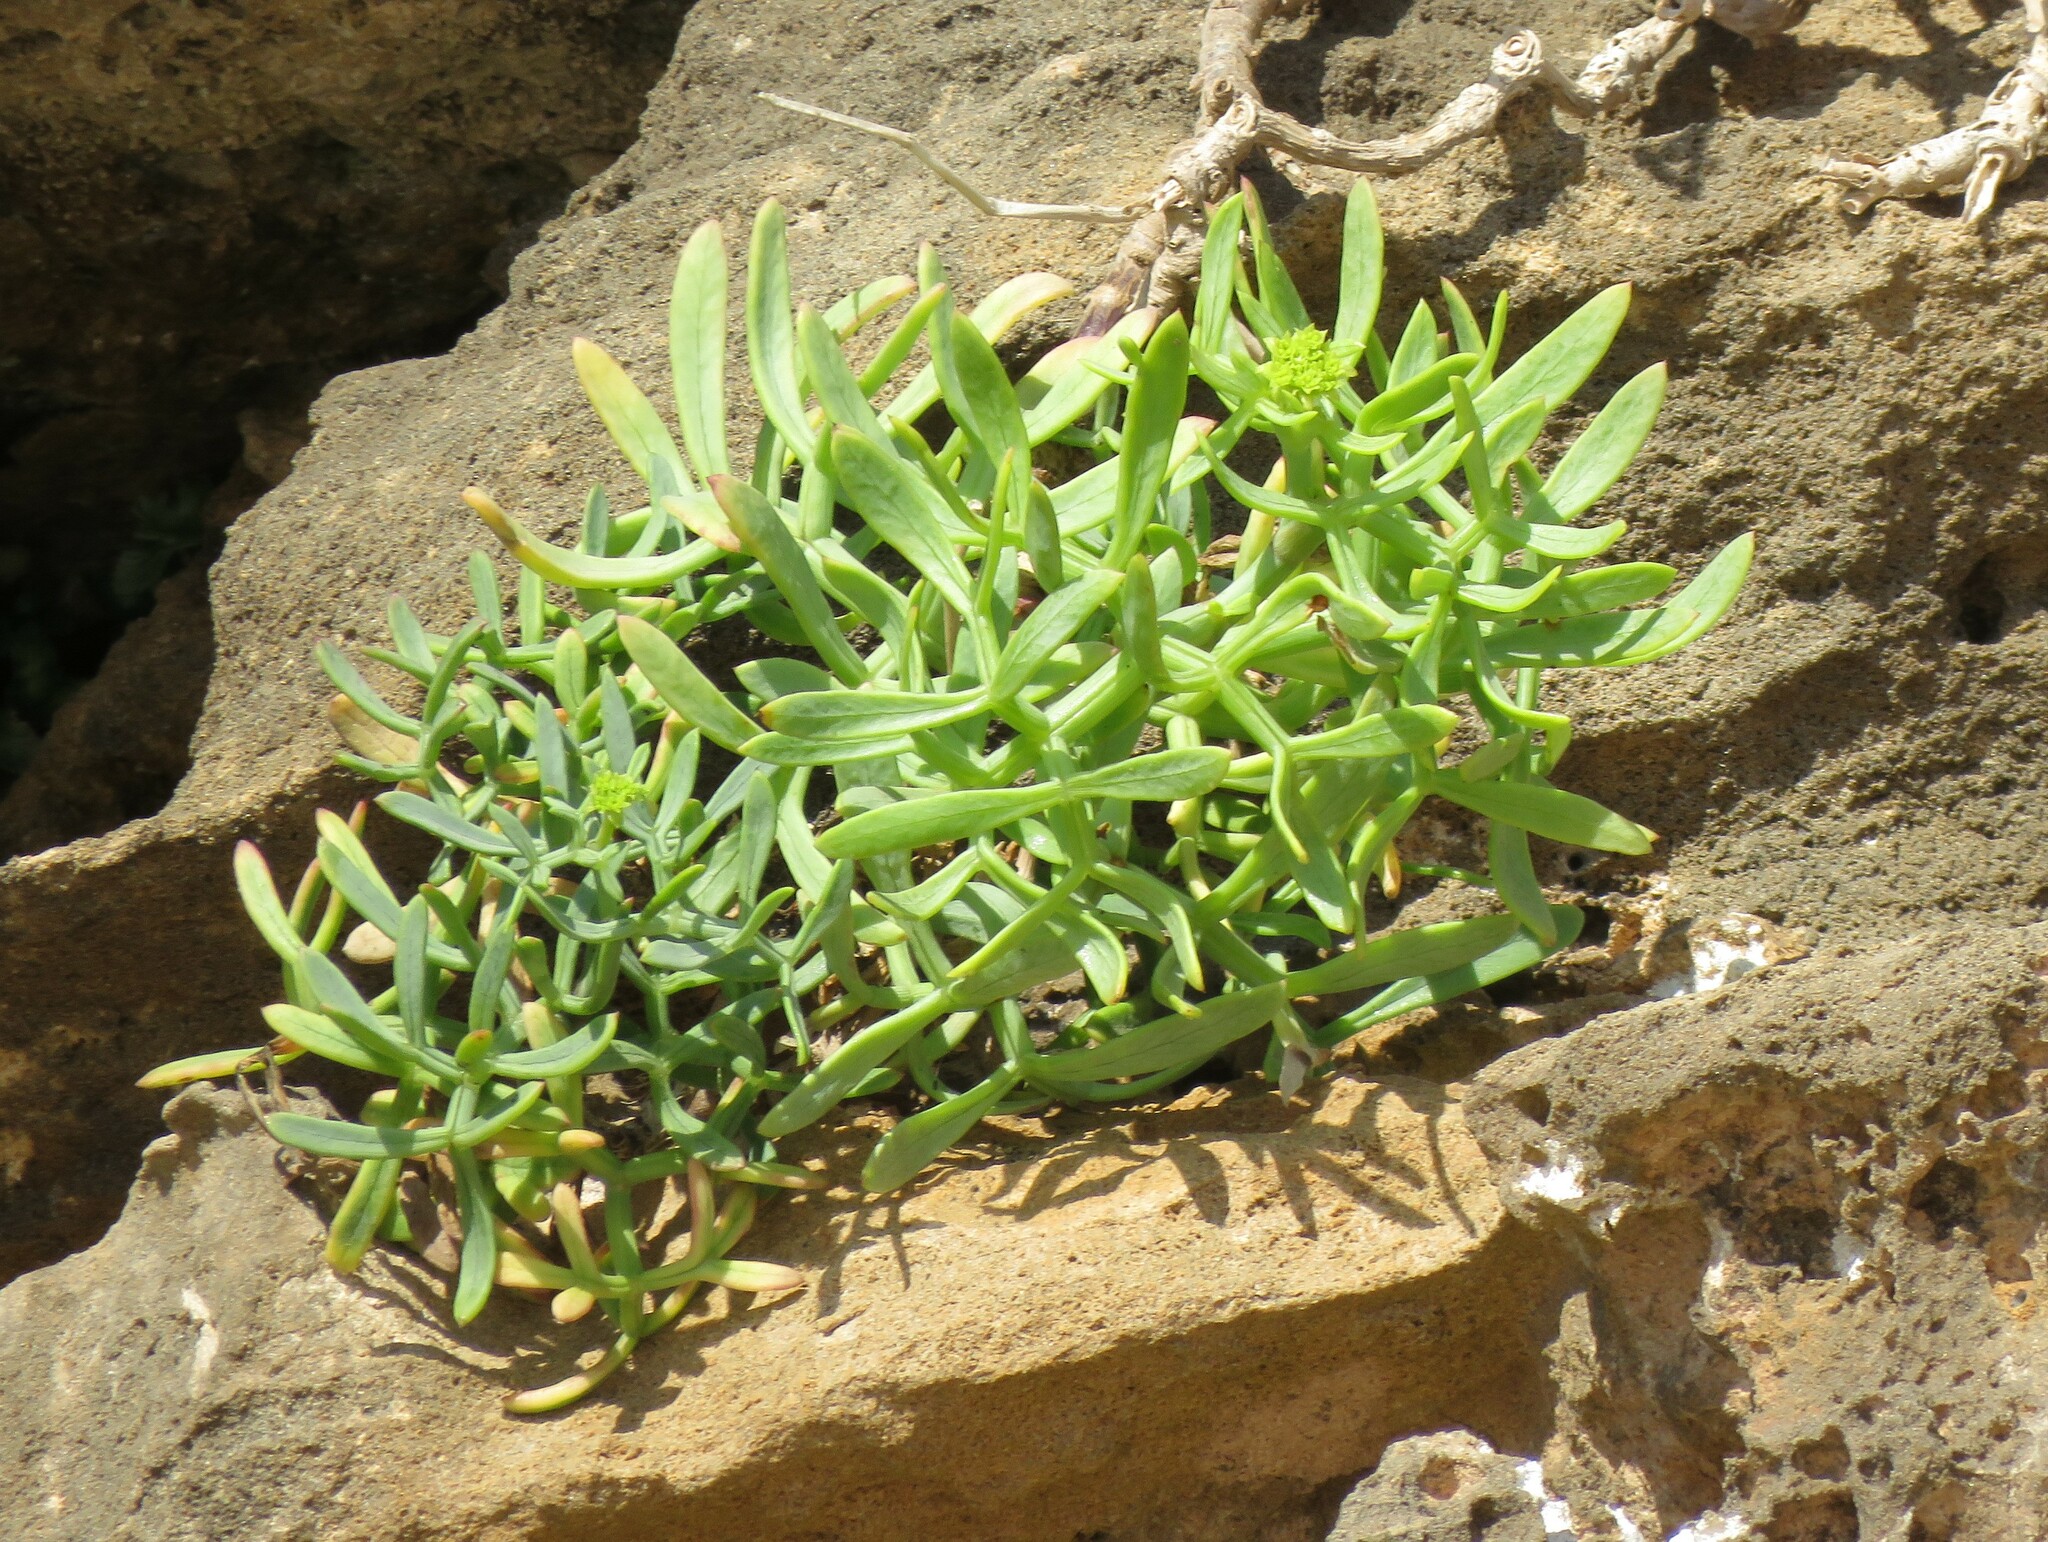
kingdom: Plantae
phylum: Tracheophyta
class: Magnoliopsida
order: Apiales
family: Apiaceae
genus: Crithmum
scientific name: Crithmum maritimum
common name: Rock samphire
